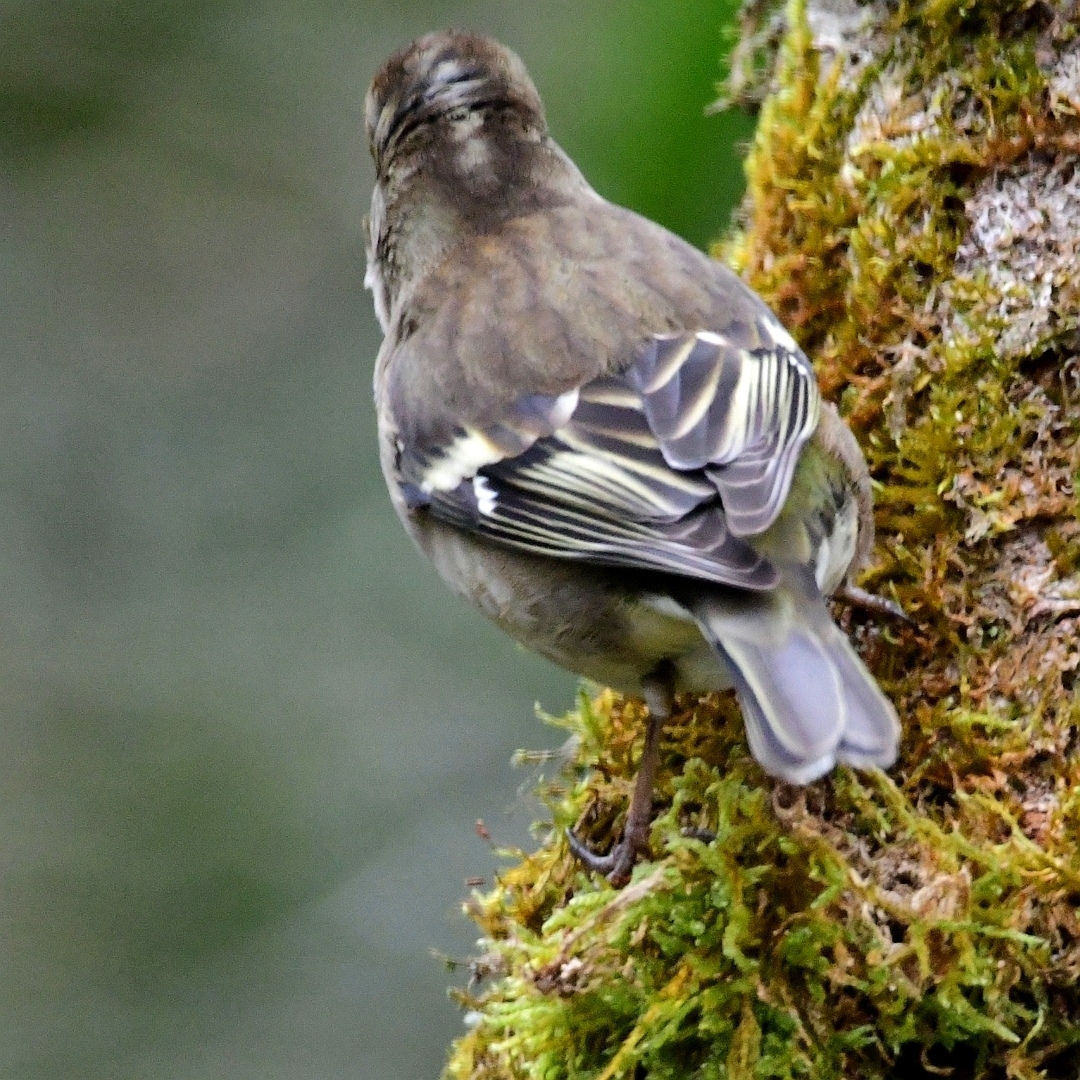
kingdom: Animalia
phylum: Chordata
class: Aves
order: Passeriformes
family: Fringillidae
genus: Fringilla
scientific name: Fringilla coelebs
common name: Common chaffinch
